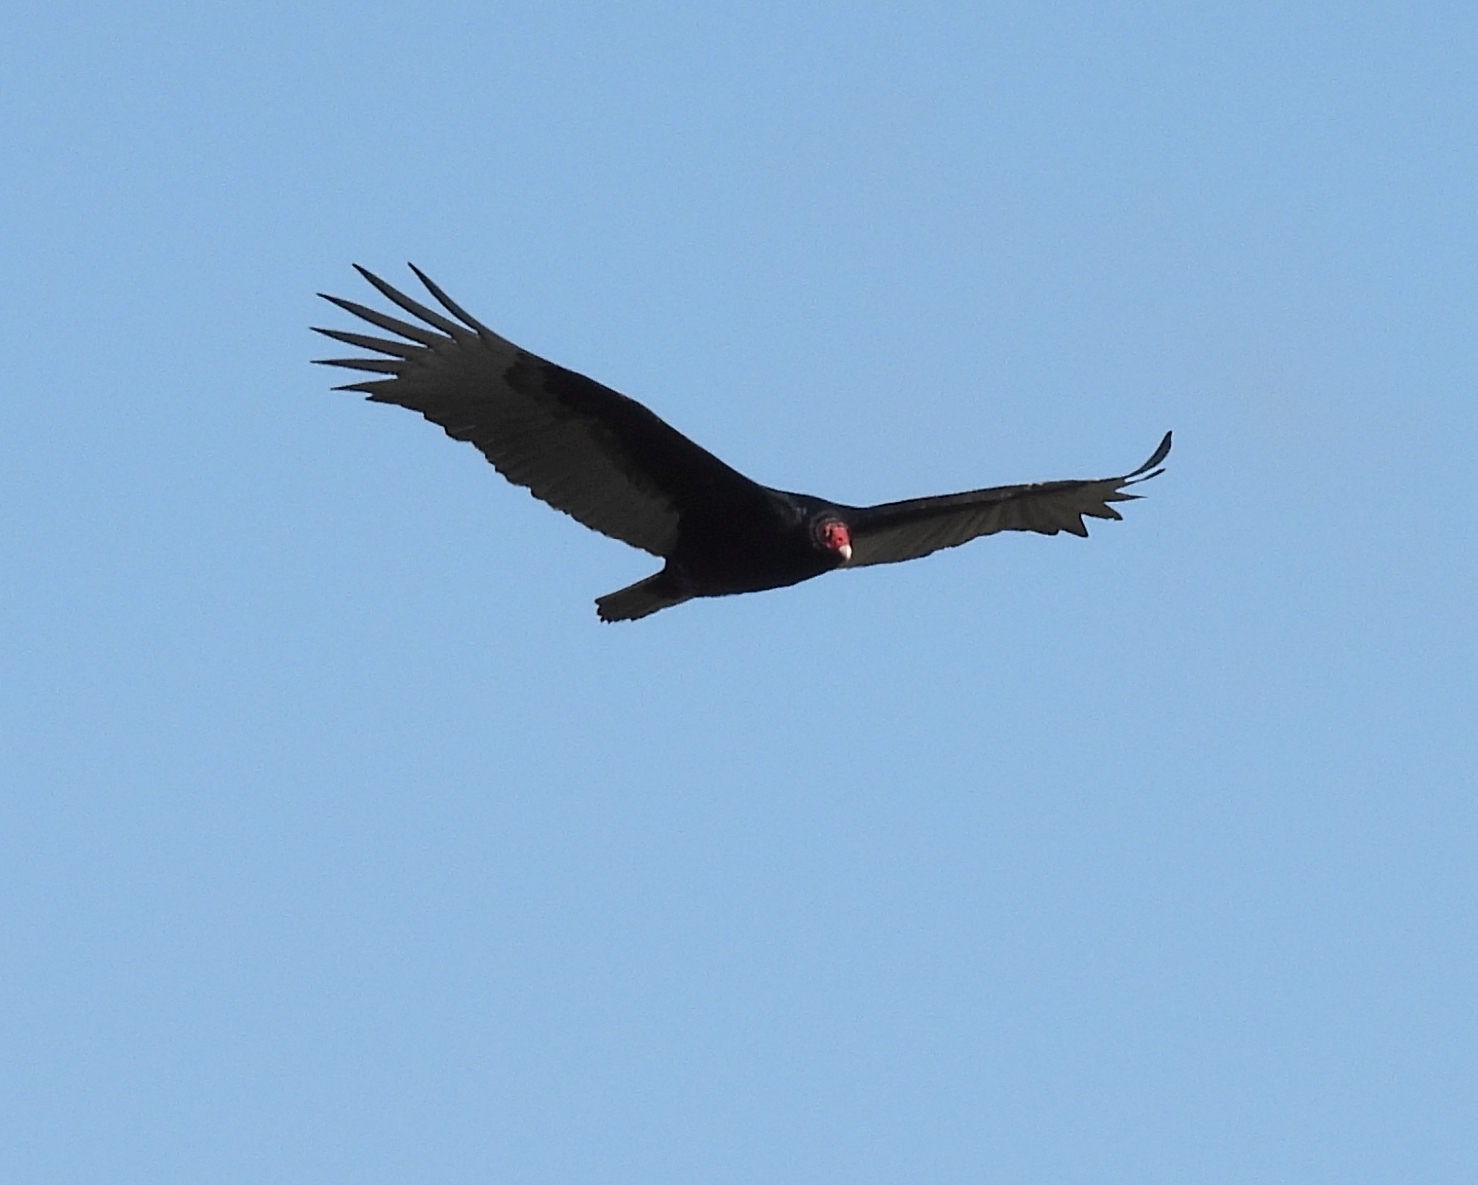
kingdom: Animalia
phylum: Chordata
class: Aves
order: Accipitriformes
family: Cathartidae
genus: Cathartes
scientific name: Cathartes aura
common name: Turkey vulture
